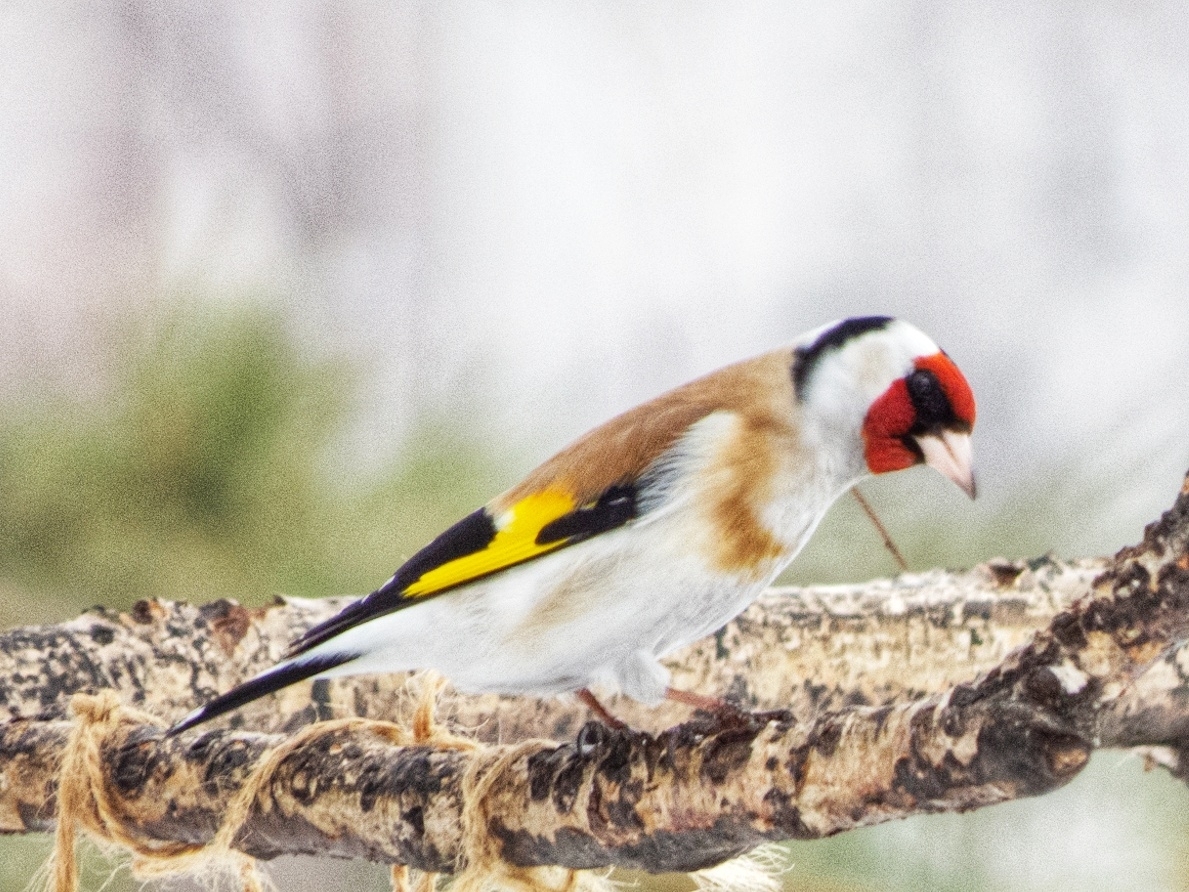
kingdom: Animalia
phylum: Chordata
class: Aves
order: Passeriformes
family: Fringillidae
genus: Carduelis
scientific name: Carduelis carduelis
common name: European goldfinch
